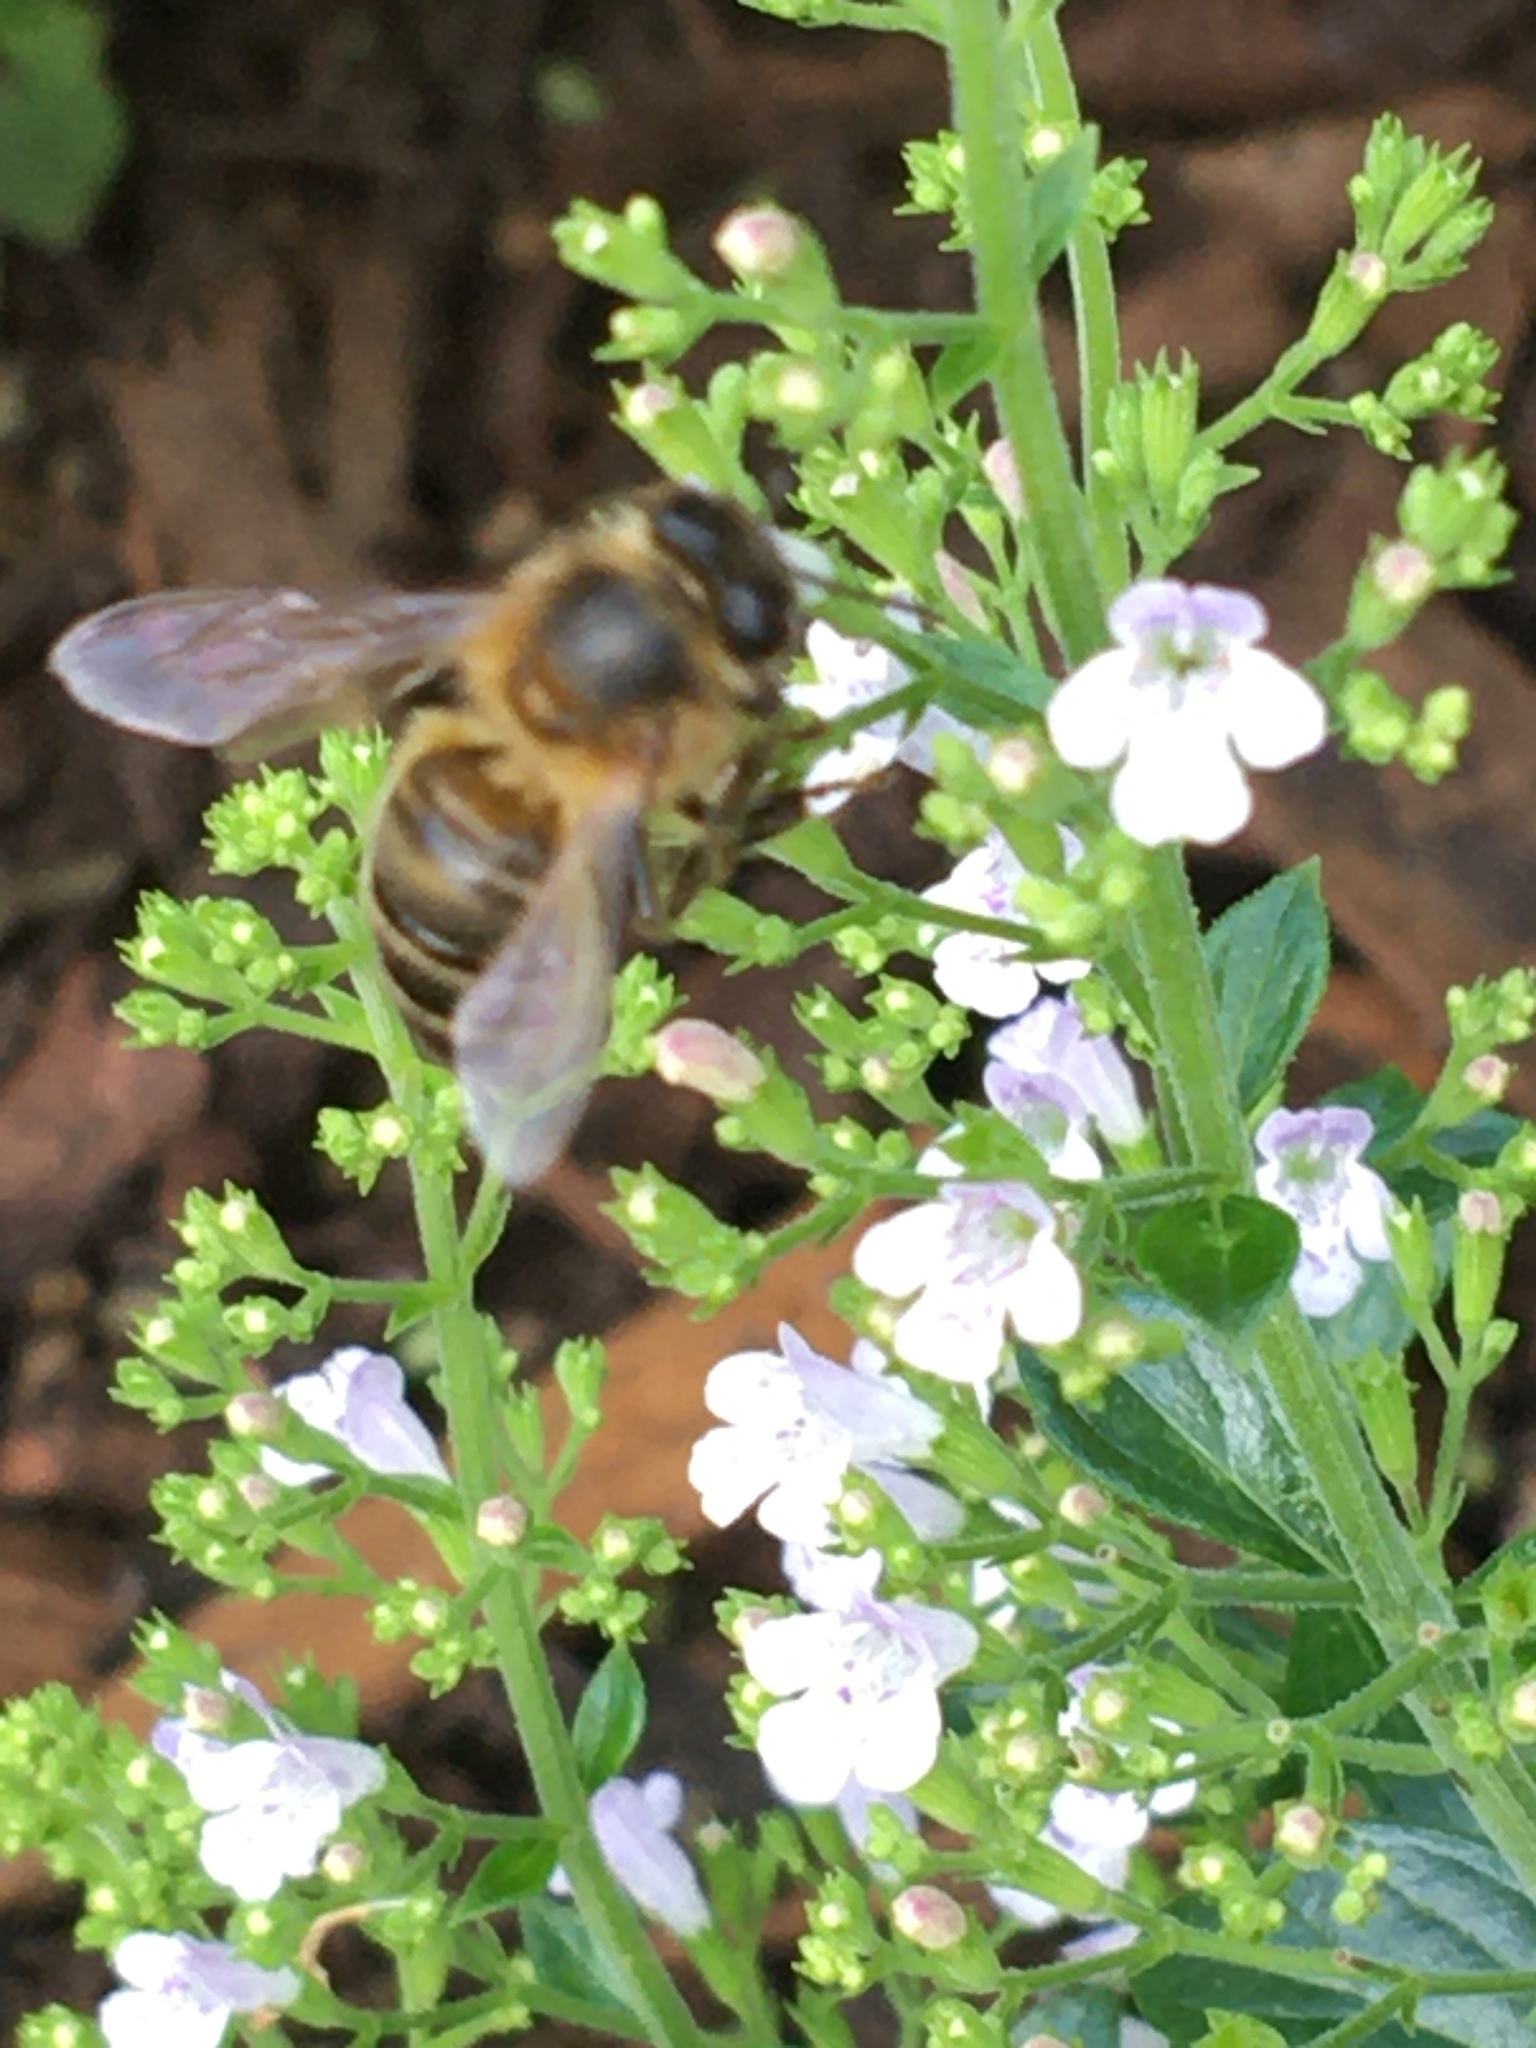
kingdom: Animalia
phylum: Arthropoda
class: Insecta
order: Hymenoptera
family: Apidae
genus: Apis
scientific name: Apis mellifera
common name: Honey bee
